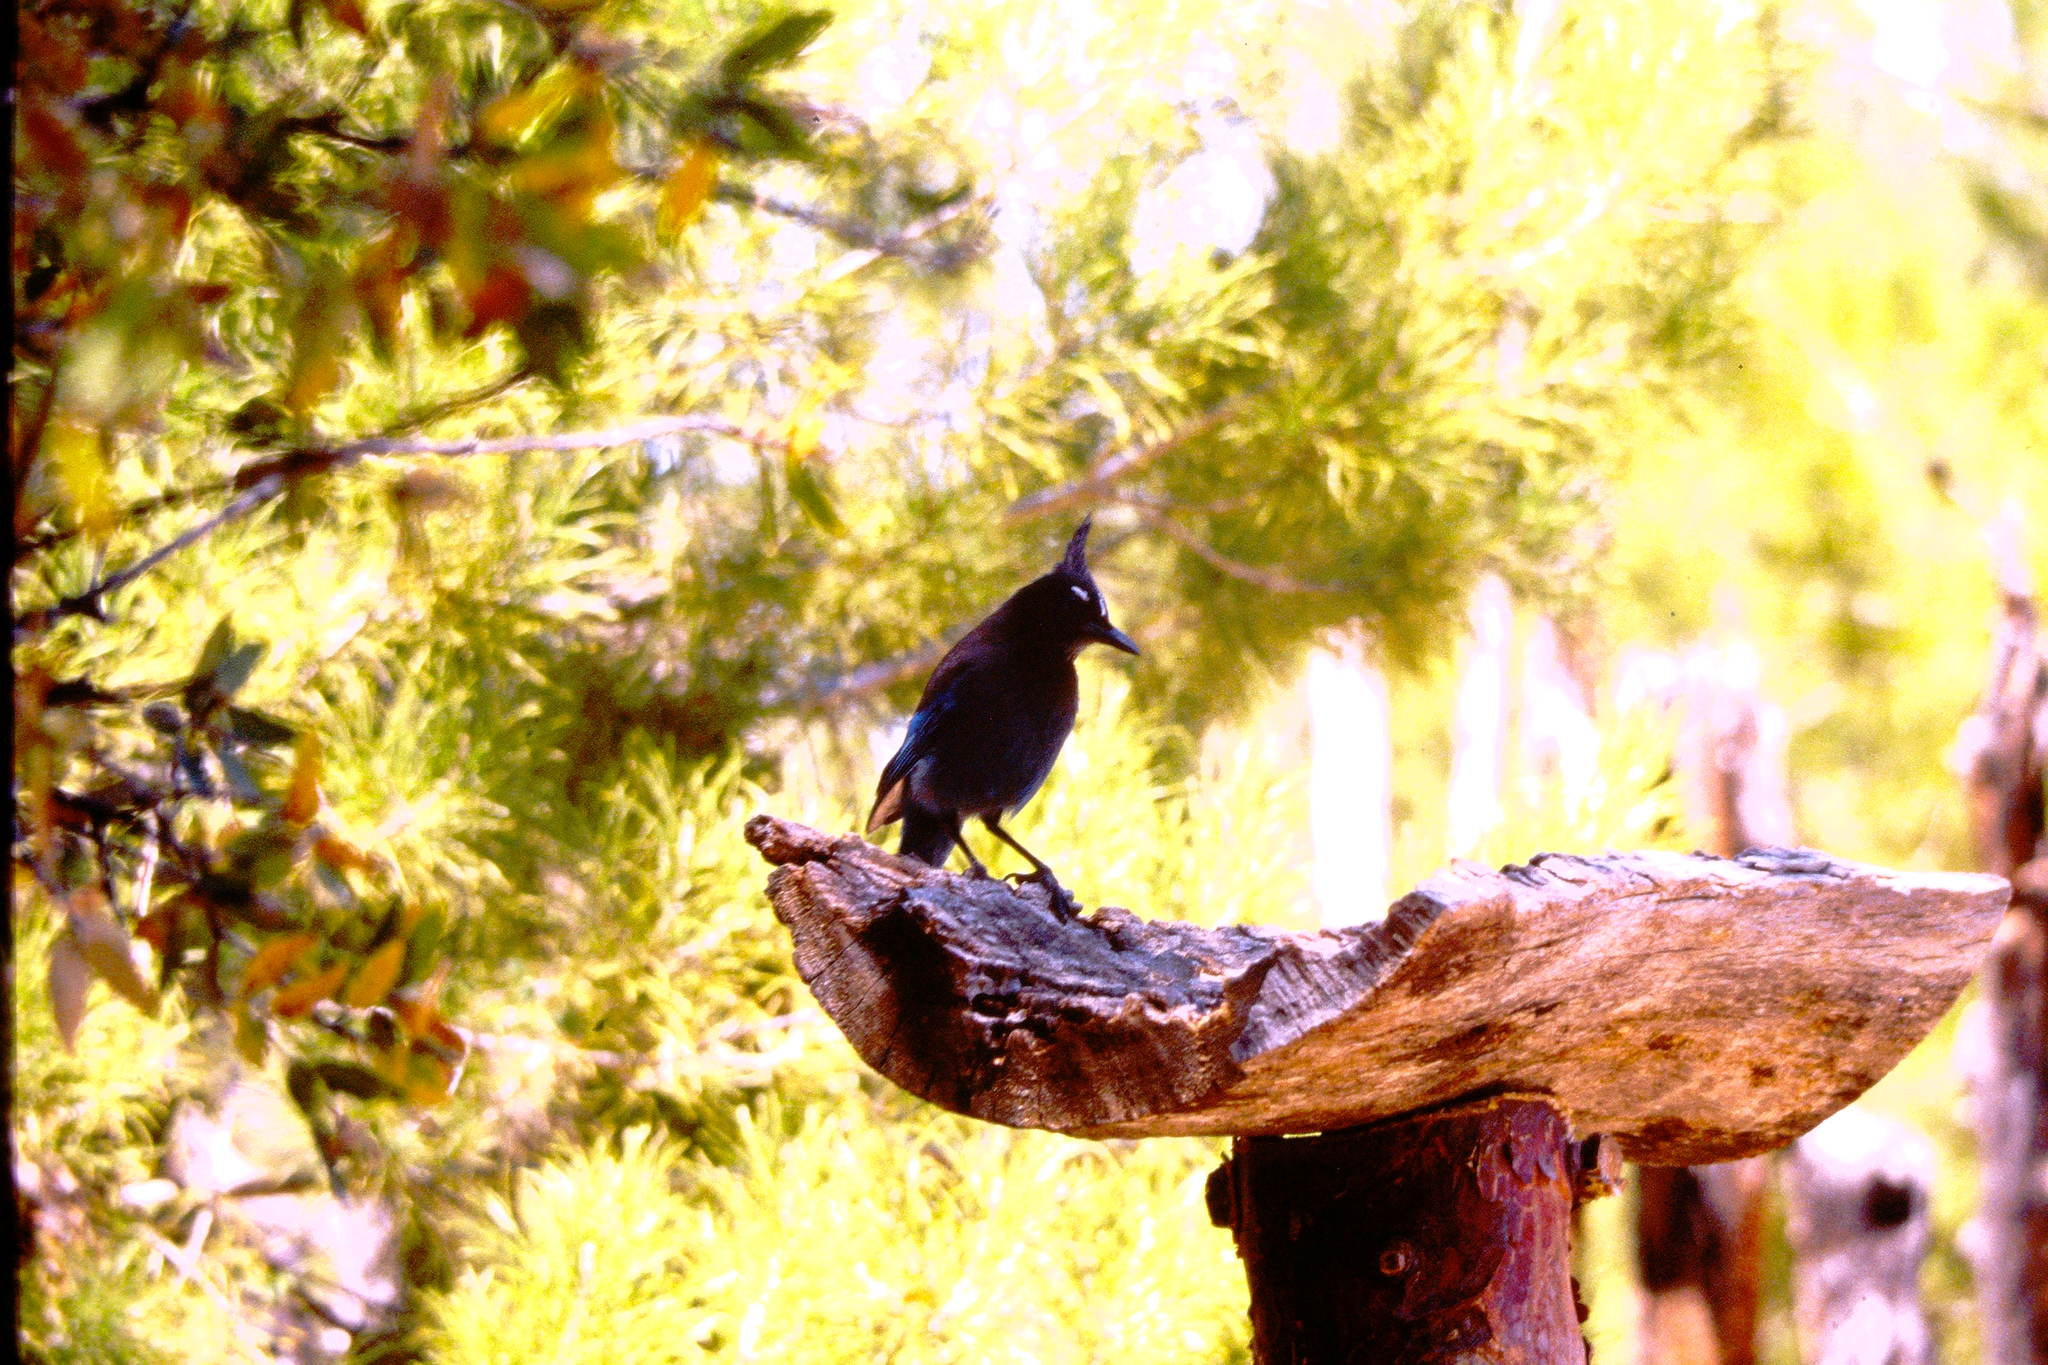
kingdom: Animalia
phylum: Chordata
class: Aves
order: Passeriformes
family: Corvidae
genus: Cyanocitta
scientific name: Cyanocitta stelleri
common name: Steller's jay
